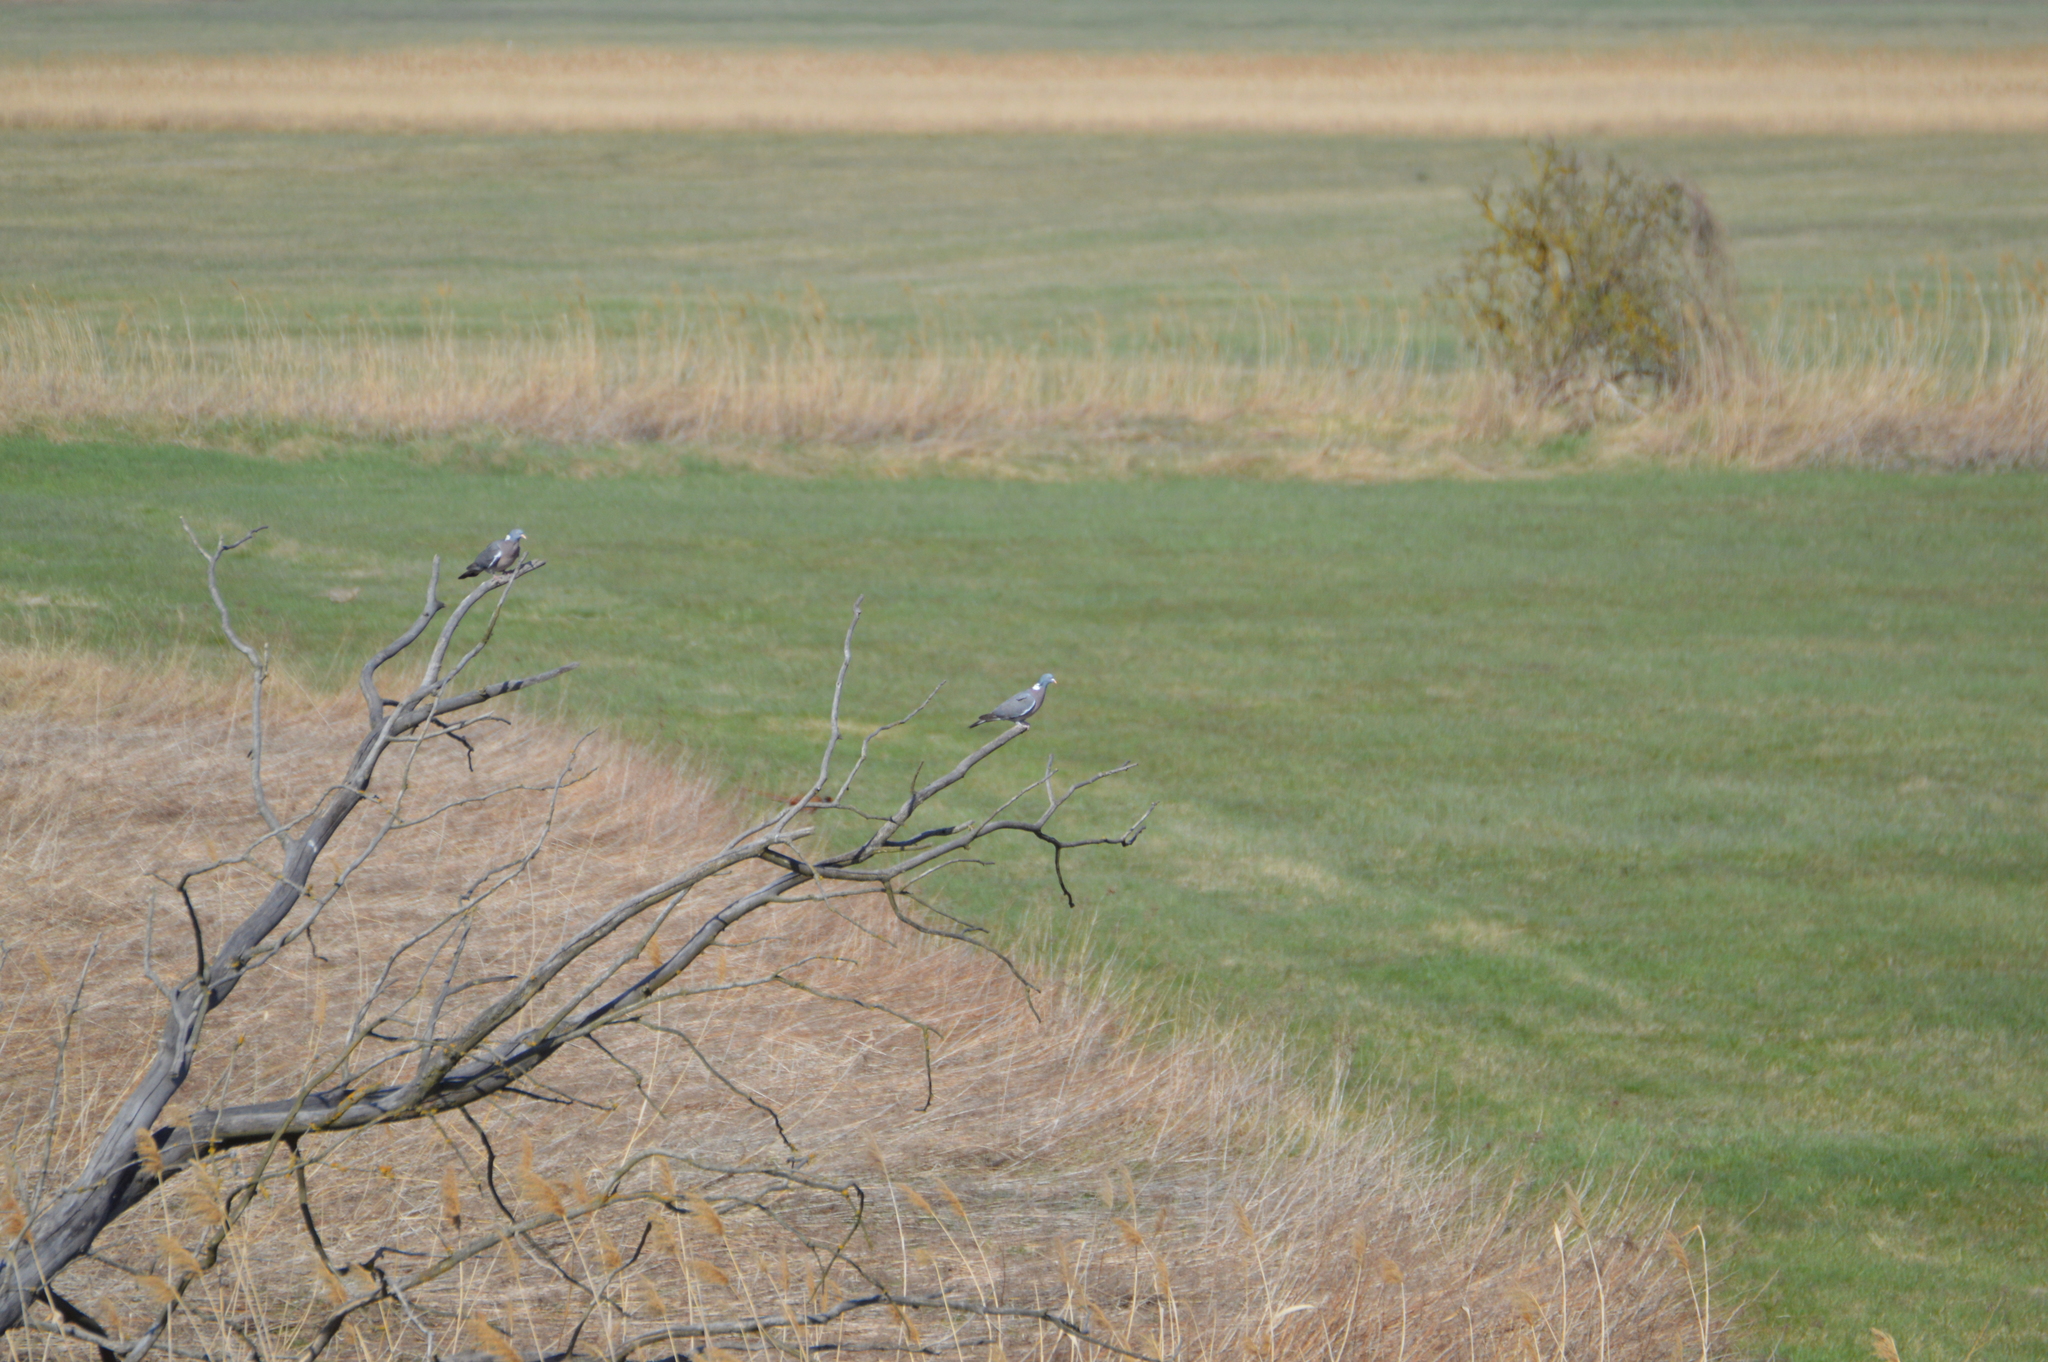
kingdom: Animalia
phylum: Chordata
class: Aves
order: Columbiformes
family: Columbidae
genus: Columba
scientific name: Columba palumbus
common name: Common wood pigeon
